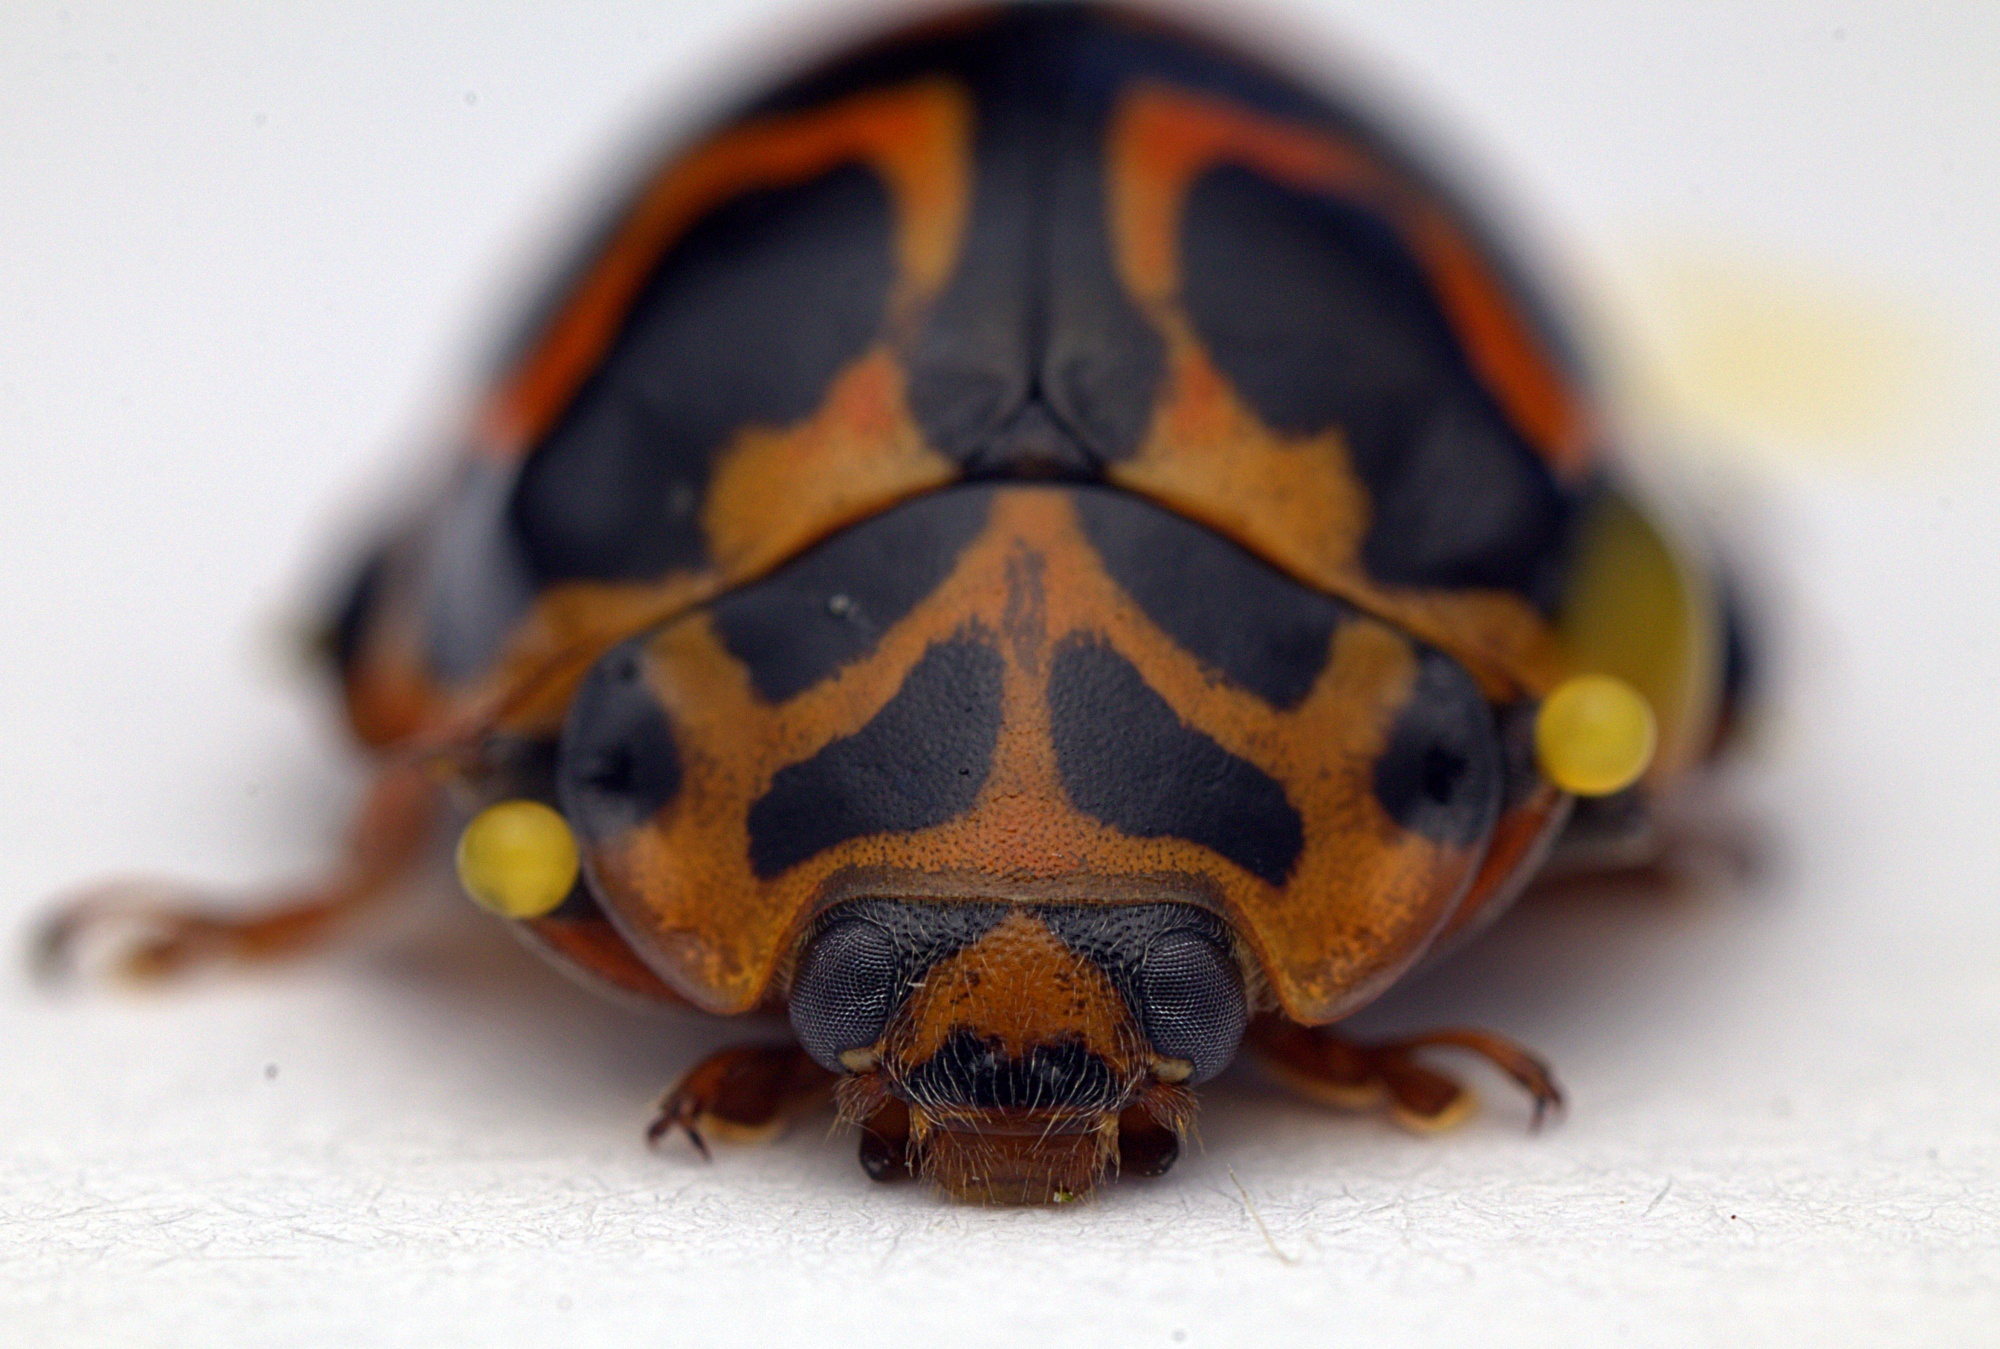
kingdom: Animalia
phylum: Arthropoda
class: Insecta
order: Coleoptera
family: Coccinellidae
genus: Cleobora
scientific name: Cleobora
